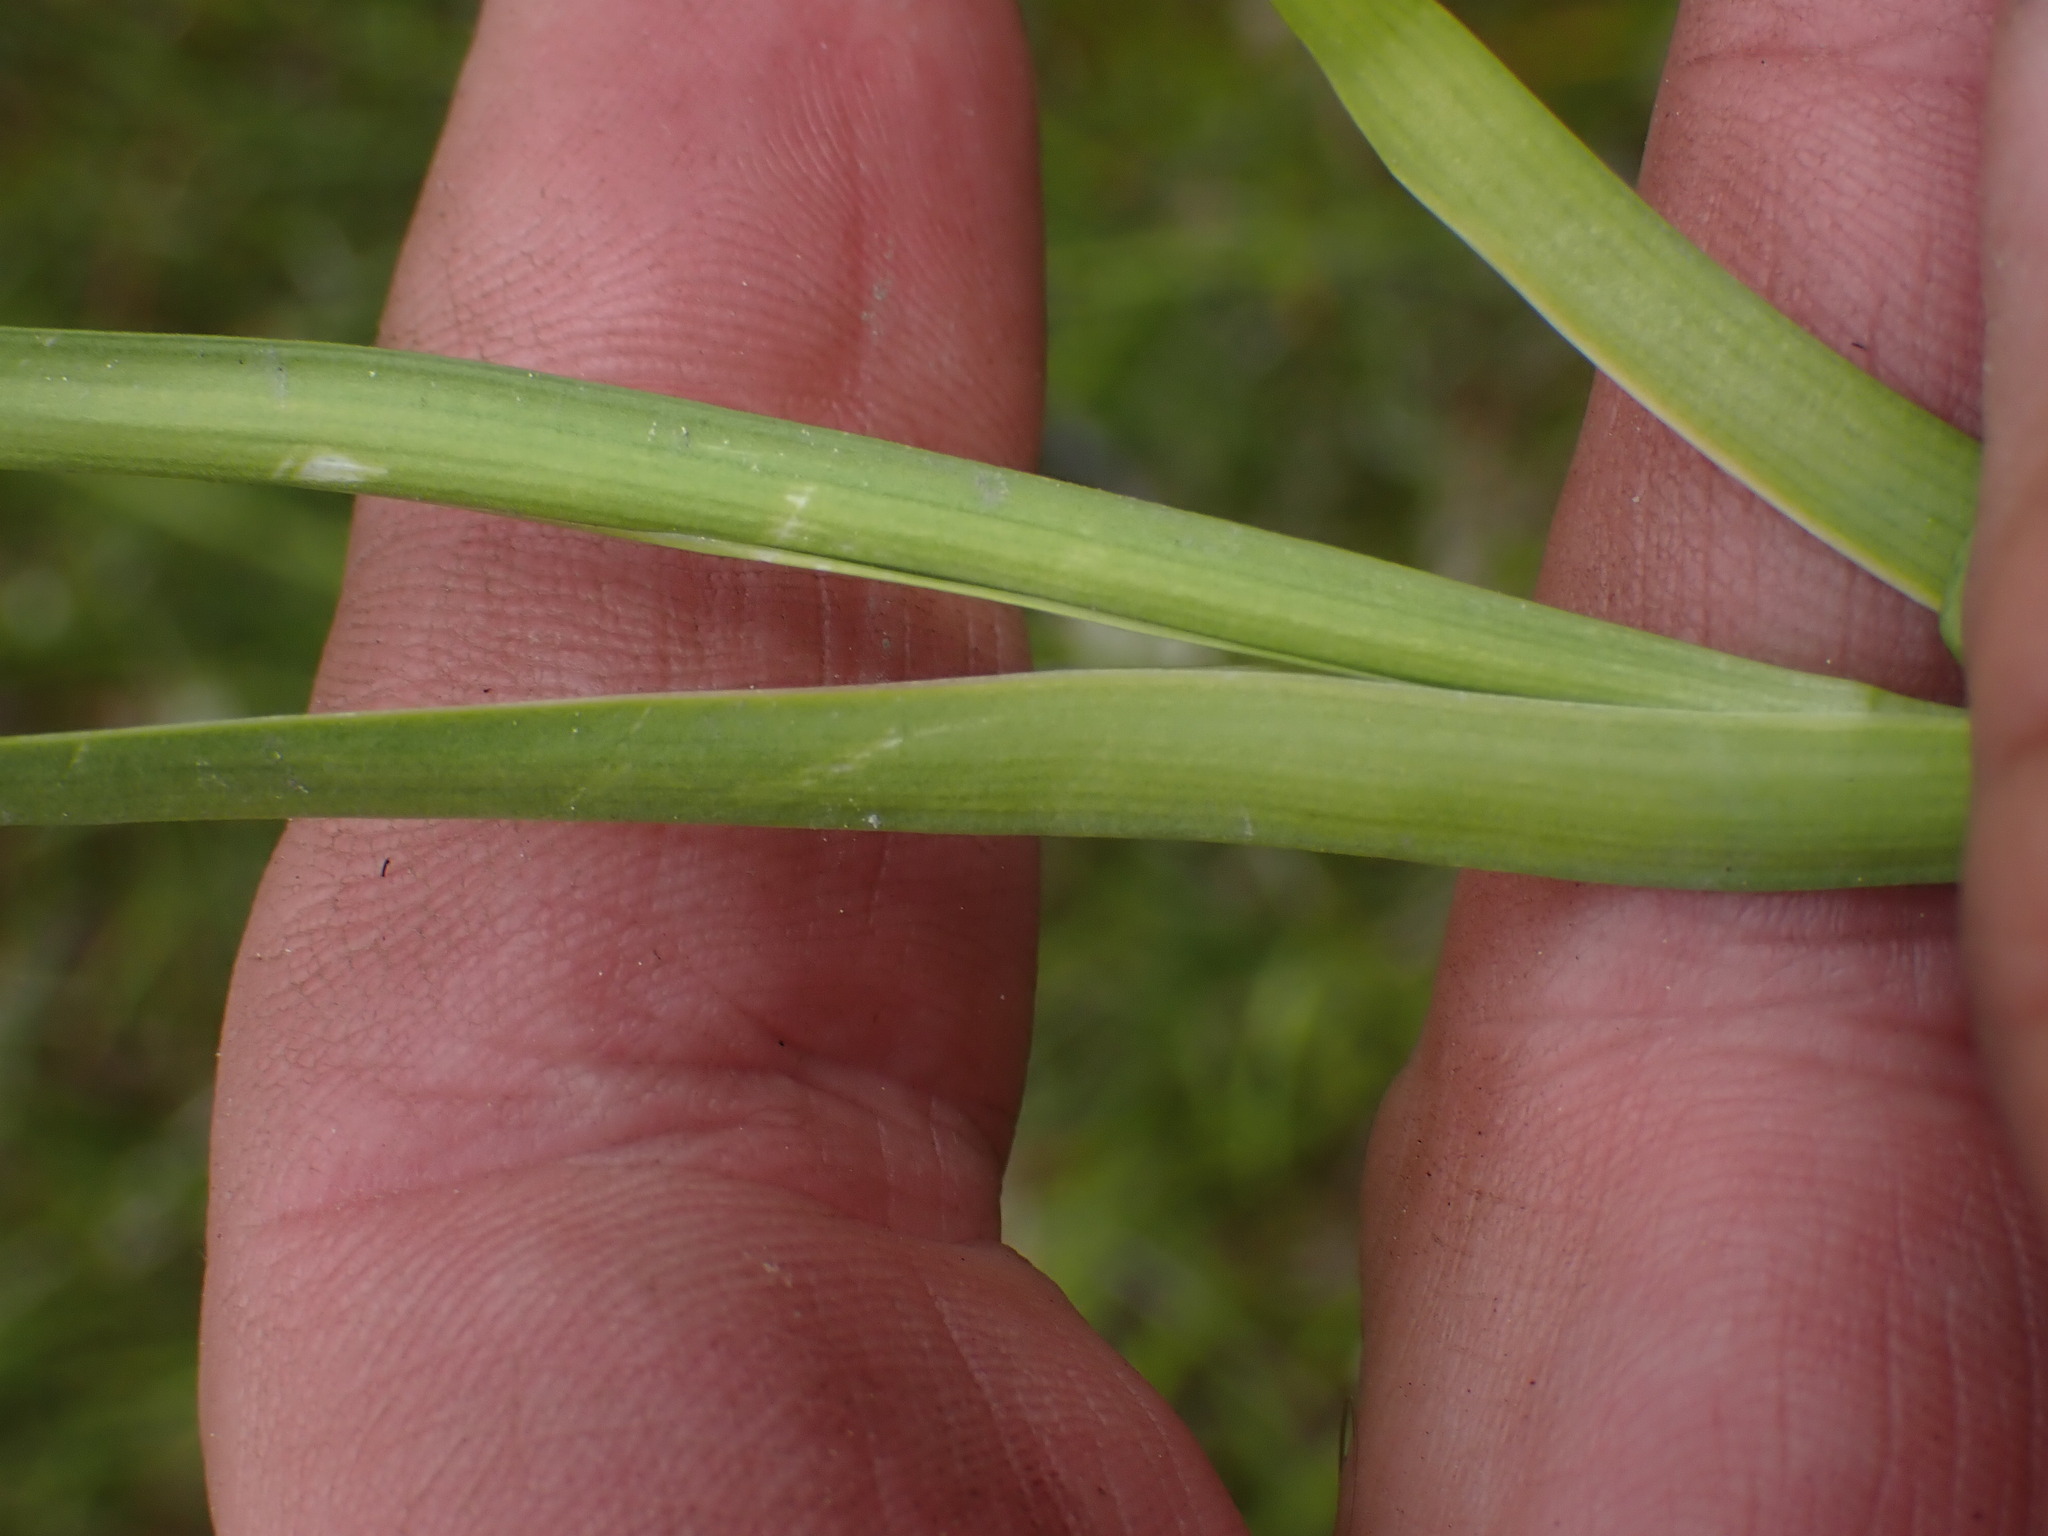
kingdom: Plantae
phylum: Tracheophyta
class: Liliopsida
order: Alismatales
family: Tofieldiaceae
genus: Triantha
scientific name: Triantha glutinosa
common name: Glutinous tofieldia
